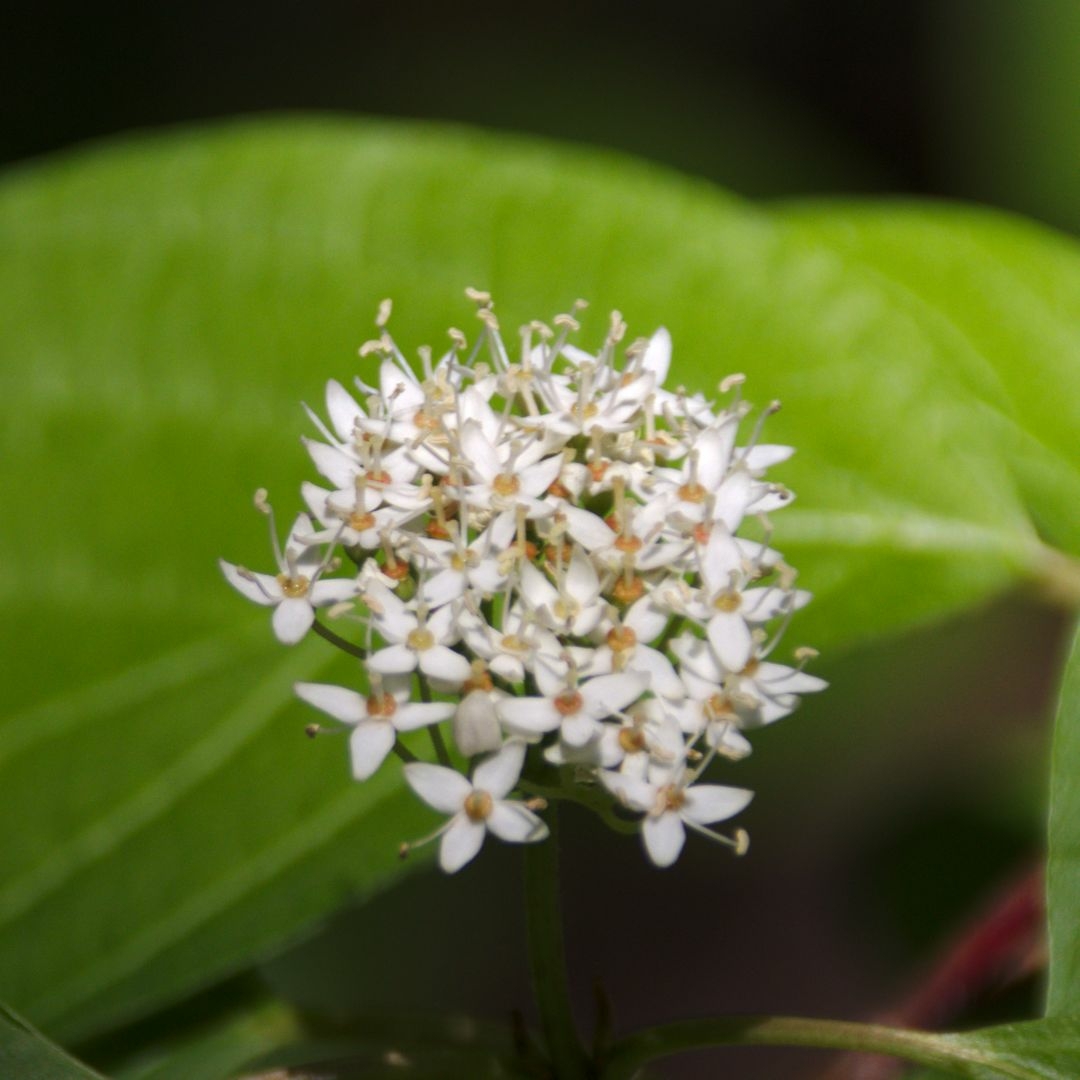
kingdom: Plantae
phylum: Tracheophyta
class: Magnoliopsida
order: Cornales
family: Cornaceae
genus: Cornus
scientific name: Cornus alba
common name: White dogwood
